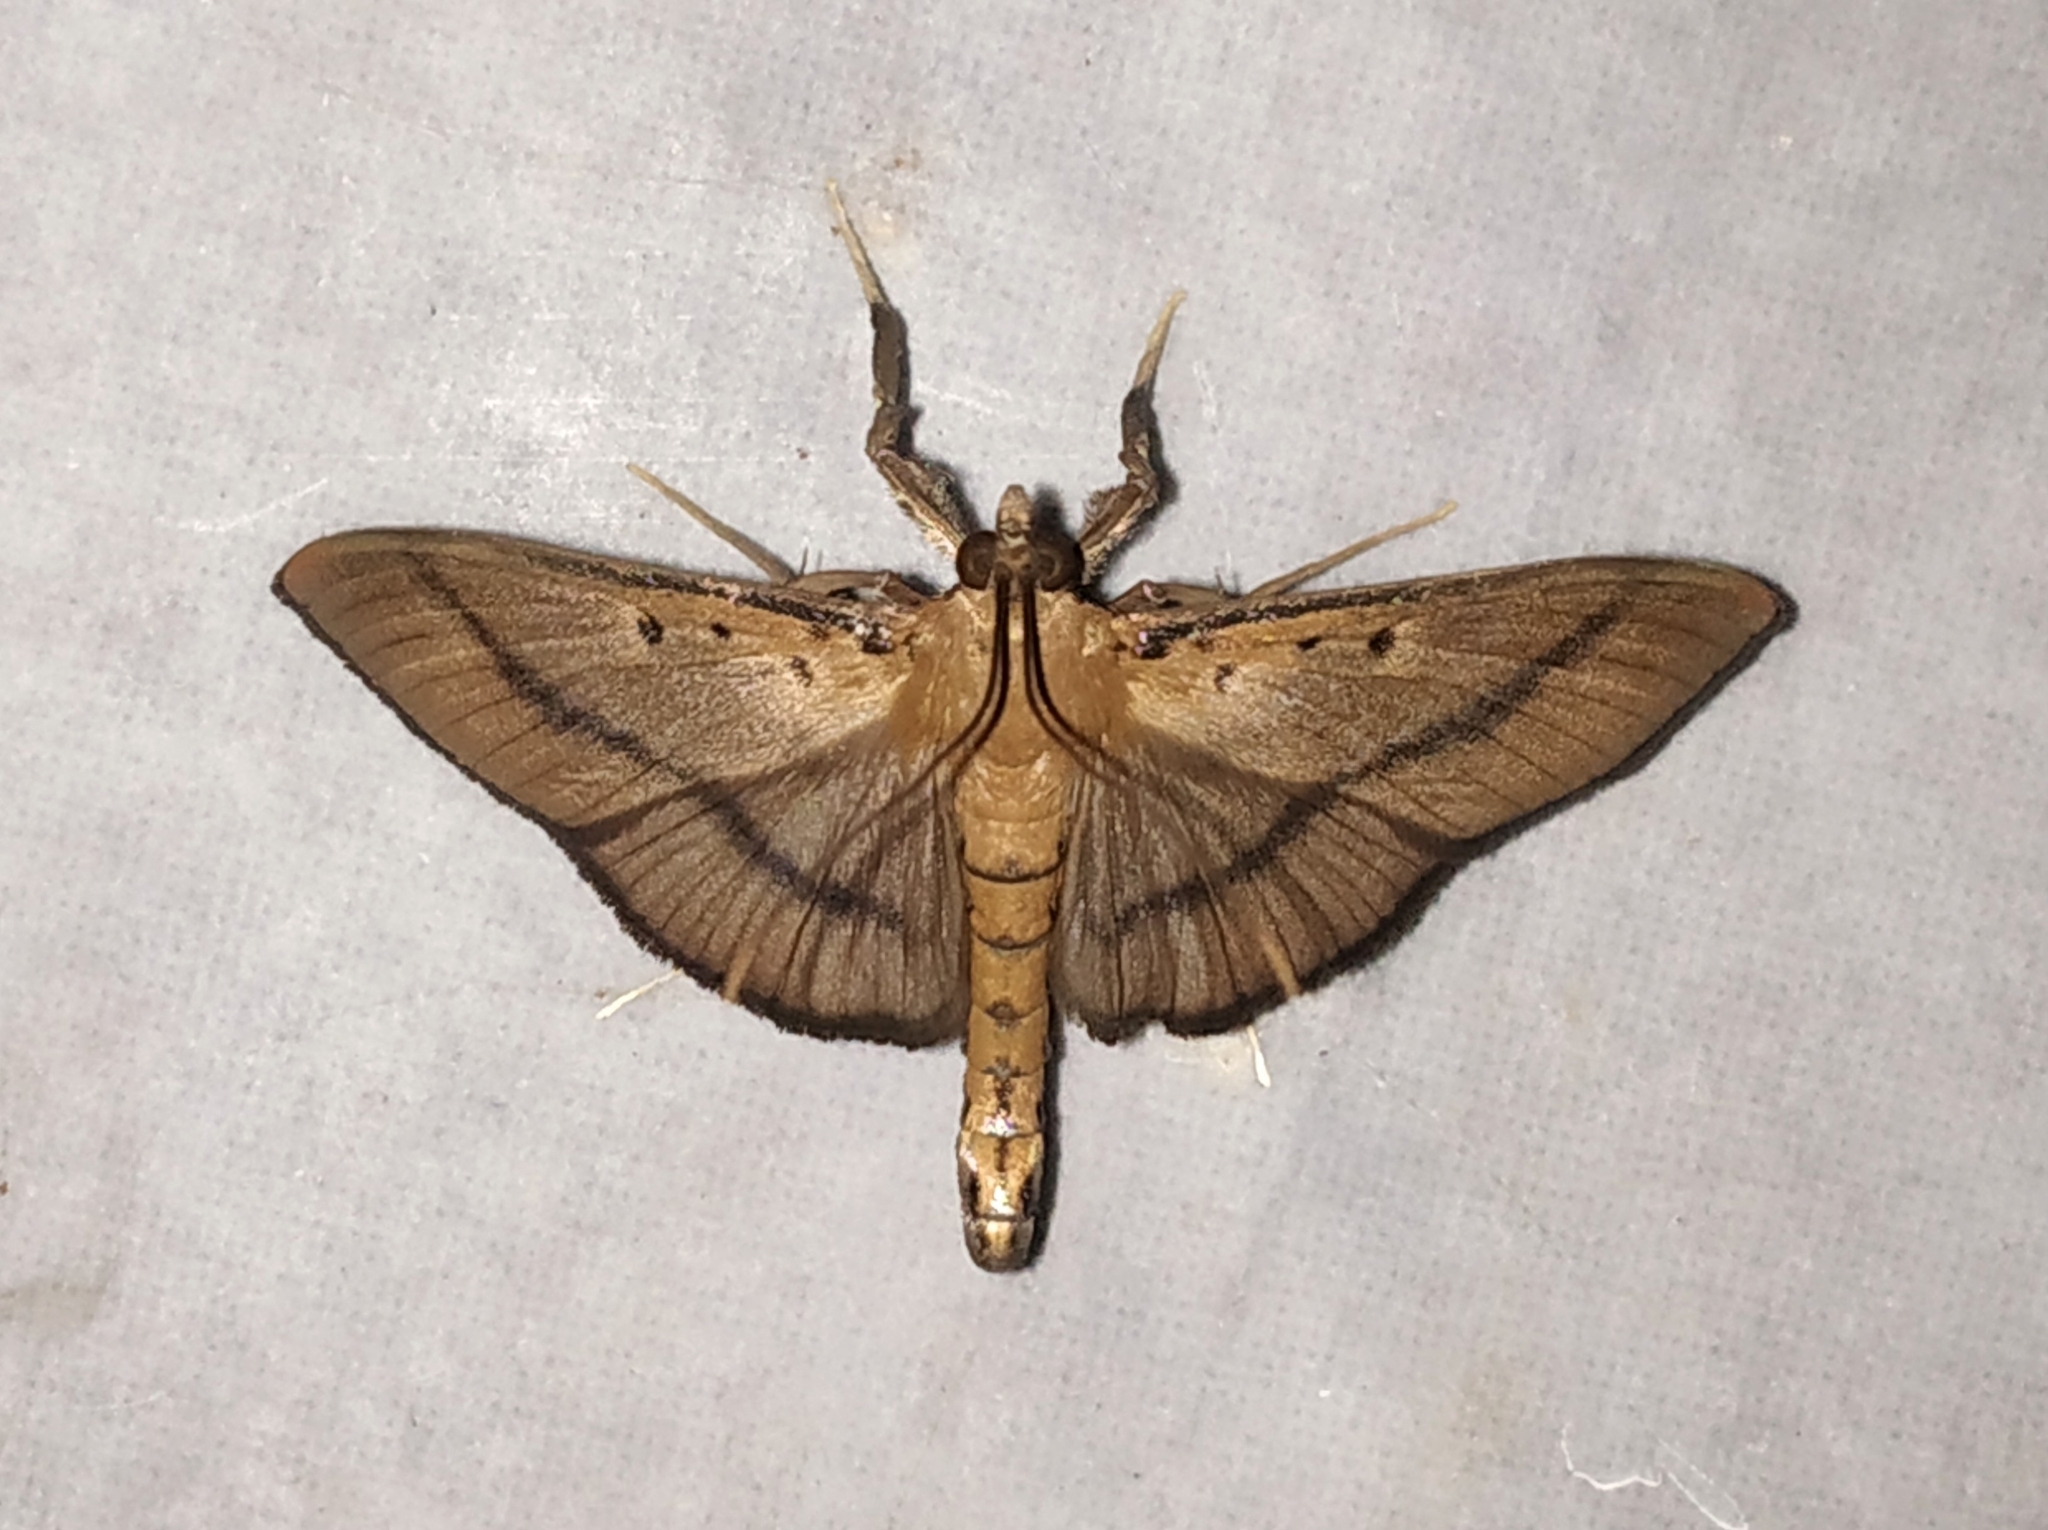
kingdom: Animalia
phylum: Arthropoda
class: Insecta
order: Lepidoptera
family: Crambidae
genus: Filodes
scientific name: Filodes fulvidorsalis
